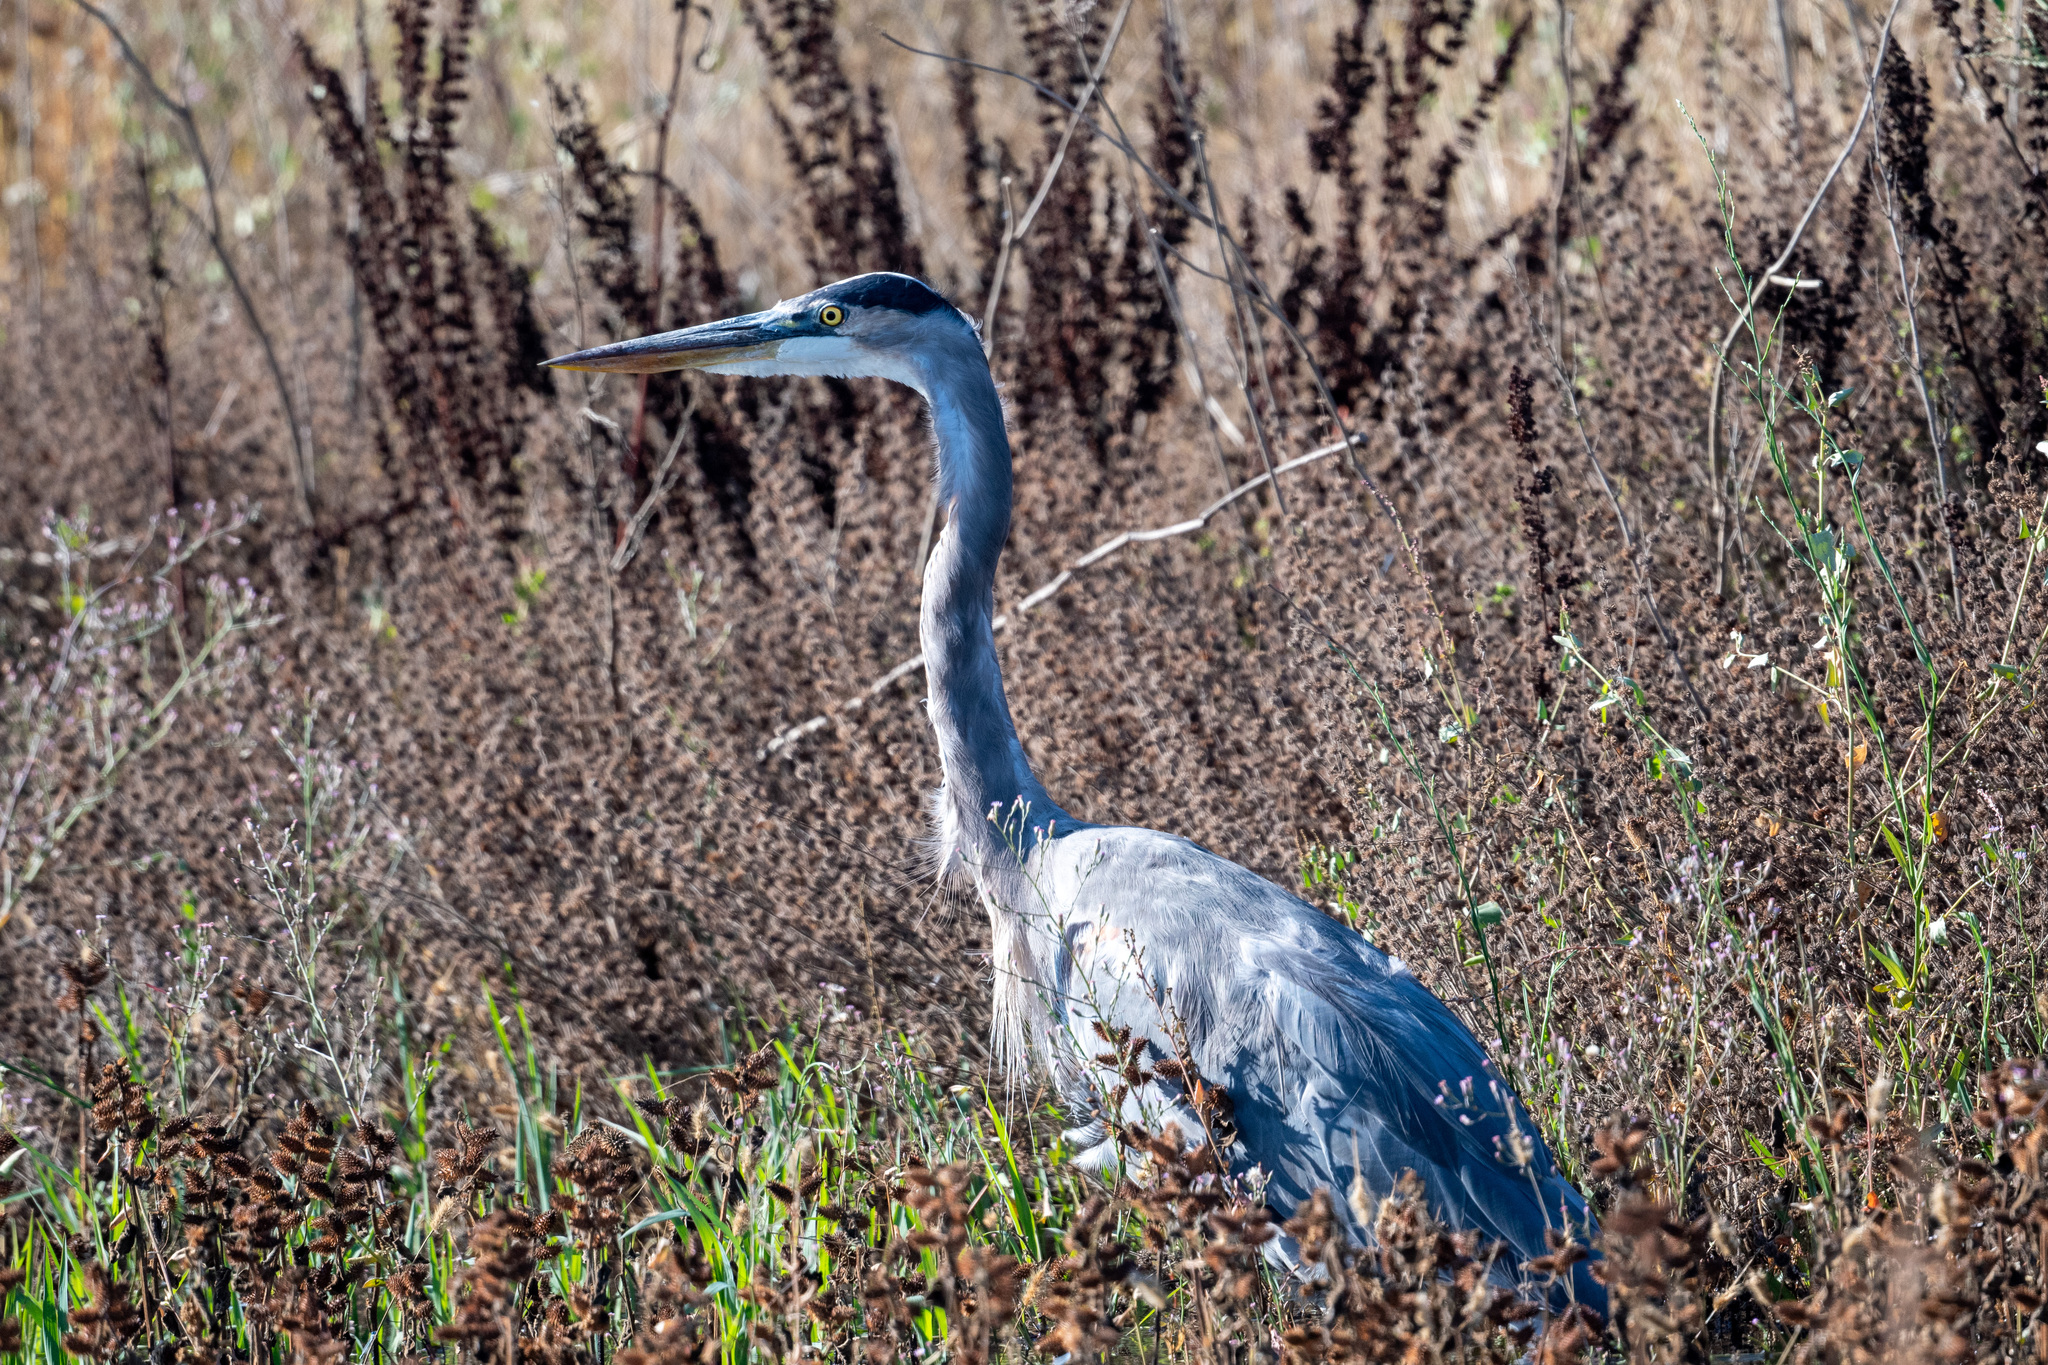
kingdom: Animalia
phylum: Chordata
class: Aves
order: Pelecaniformes
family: Ardeidae
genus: Ardea
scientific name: Ardea herodias
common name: Great blue heron
